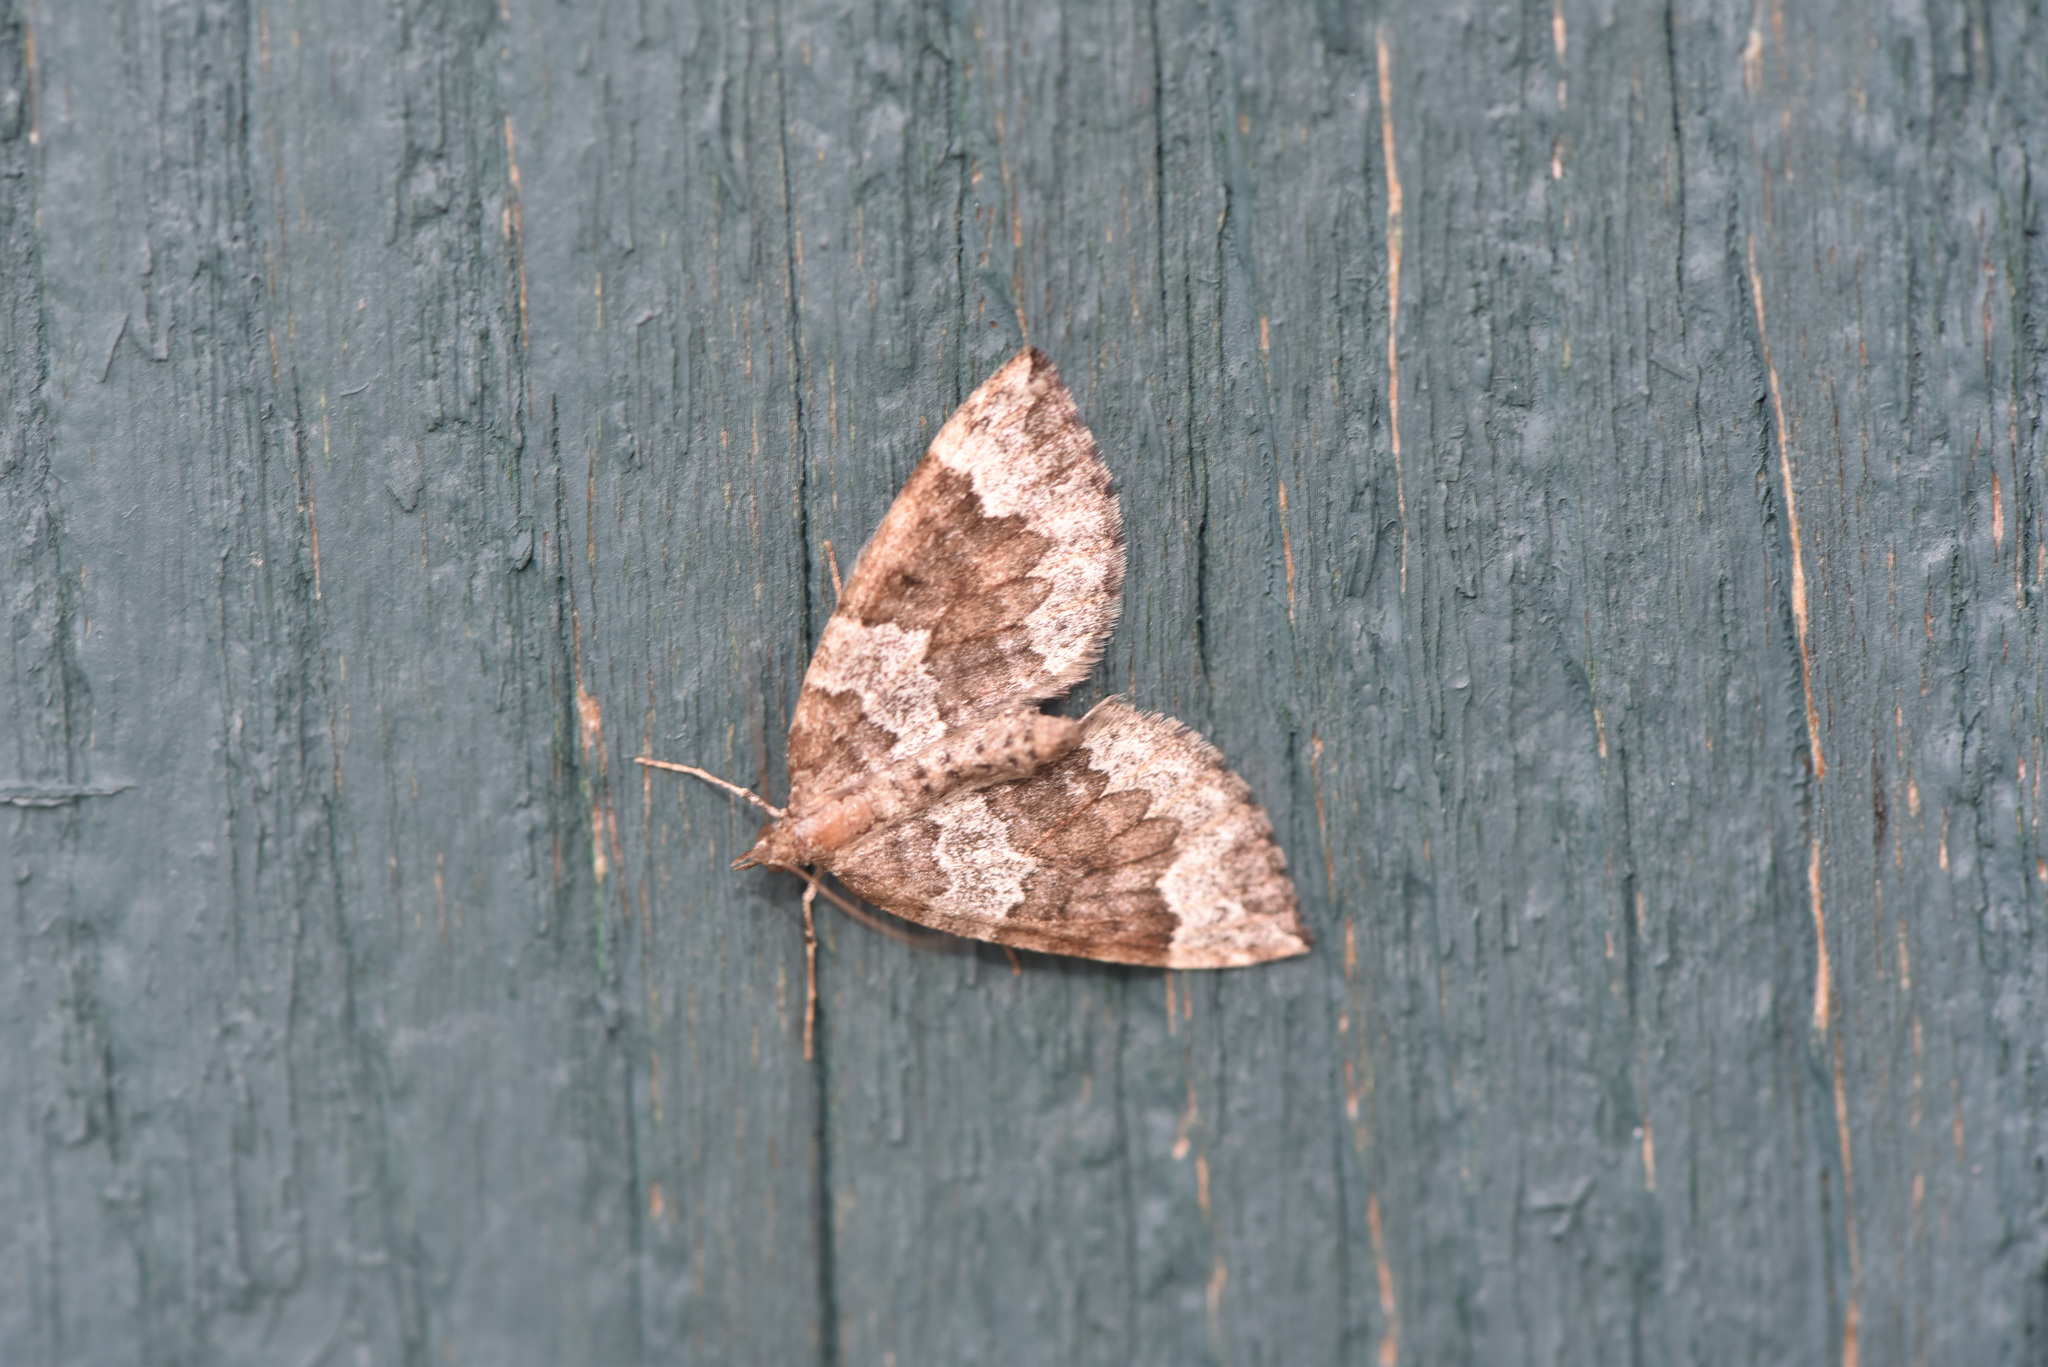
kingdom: Animalia
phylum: Arthropoda
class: Insecta
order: Lepidoptera
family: Geometridae
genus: Eulithis
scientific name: Eulithis destinata
